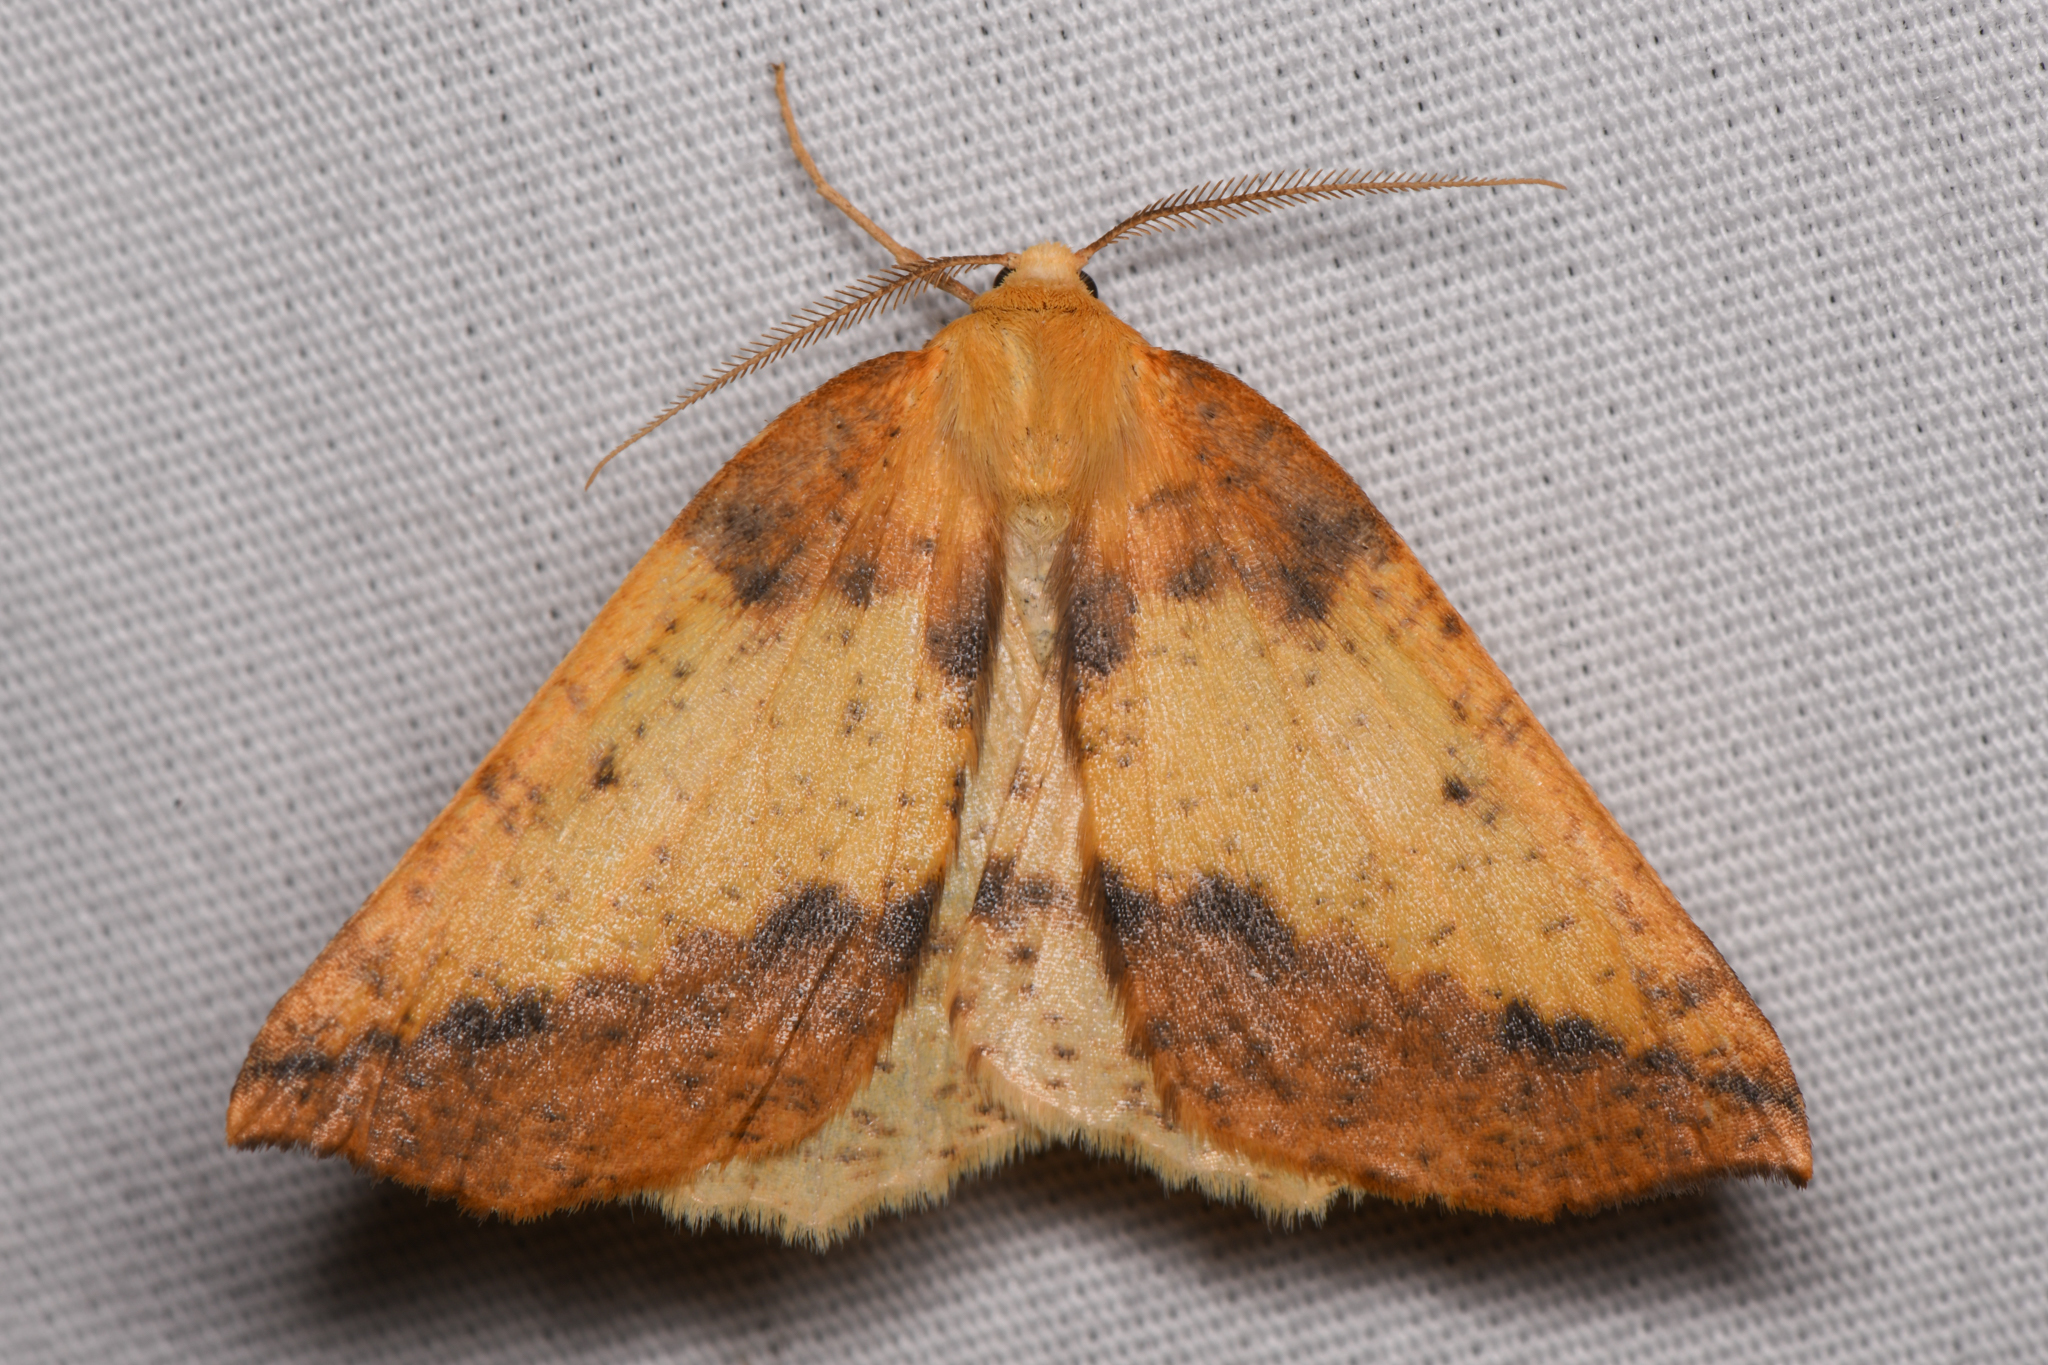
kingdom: Animalia
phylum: Arthropoda
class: Insecta
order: Lepidoptera
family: Geometridae
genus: Neoterpes
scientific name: Neoterpes edwardsata
